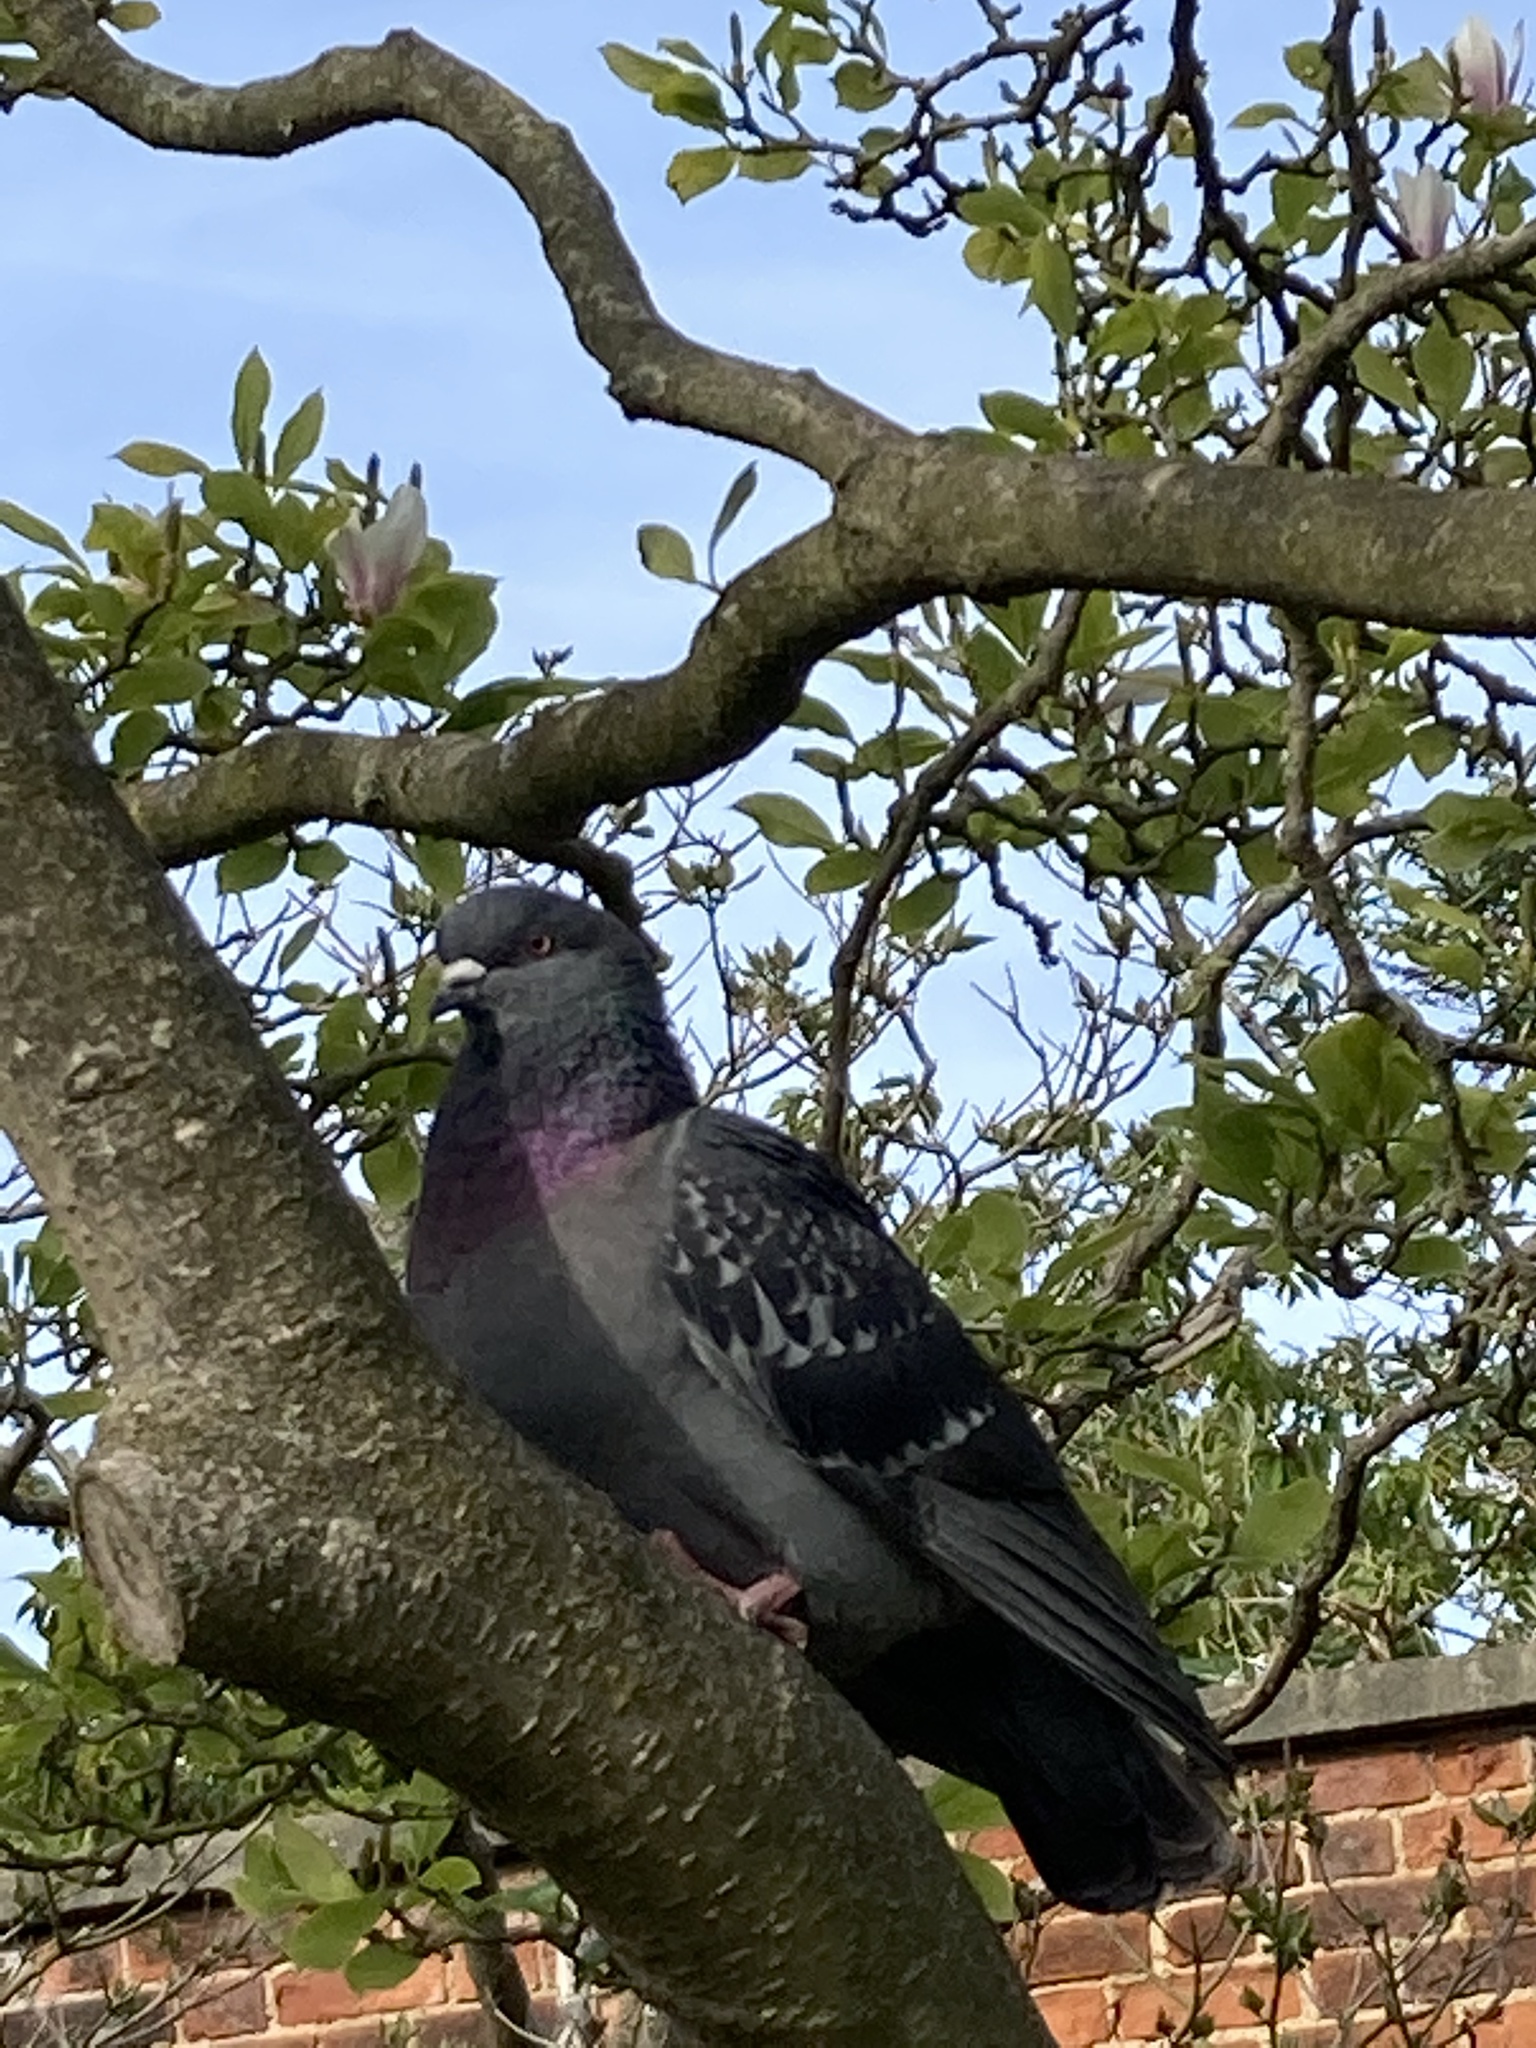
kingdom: Animalia
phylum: Chordata
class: Aves
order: Columbiformes
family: Columbidae
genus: Columba
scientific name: Columba livia
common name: Rock pigeon
